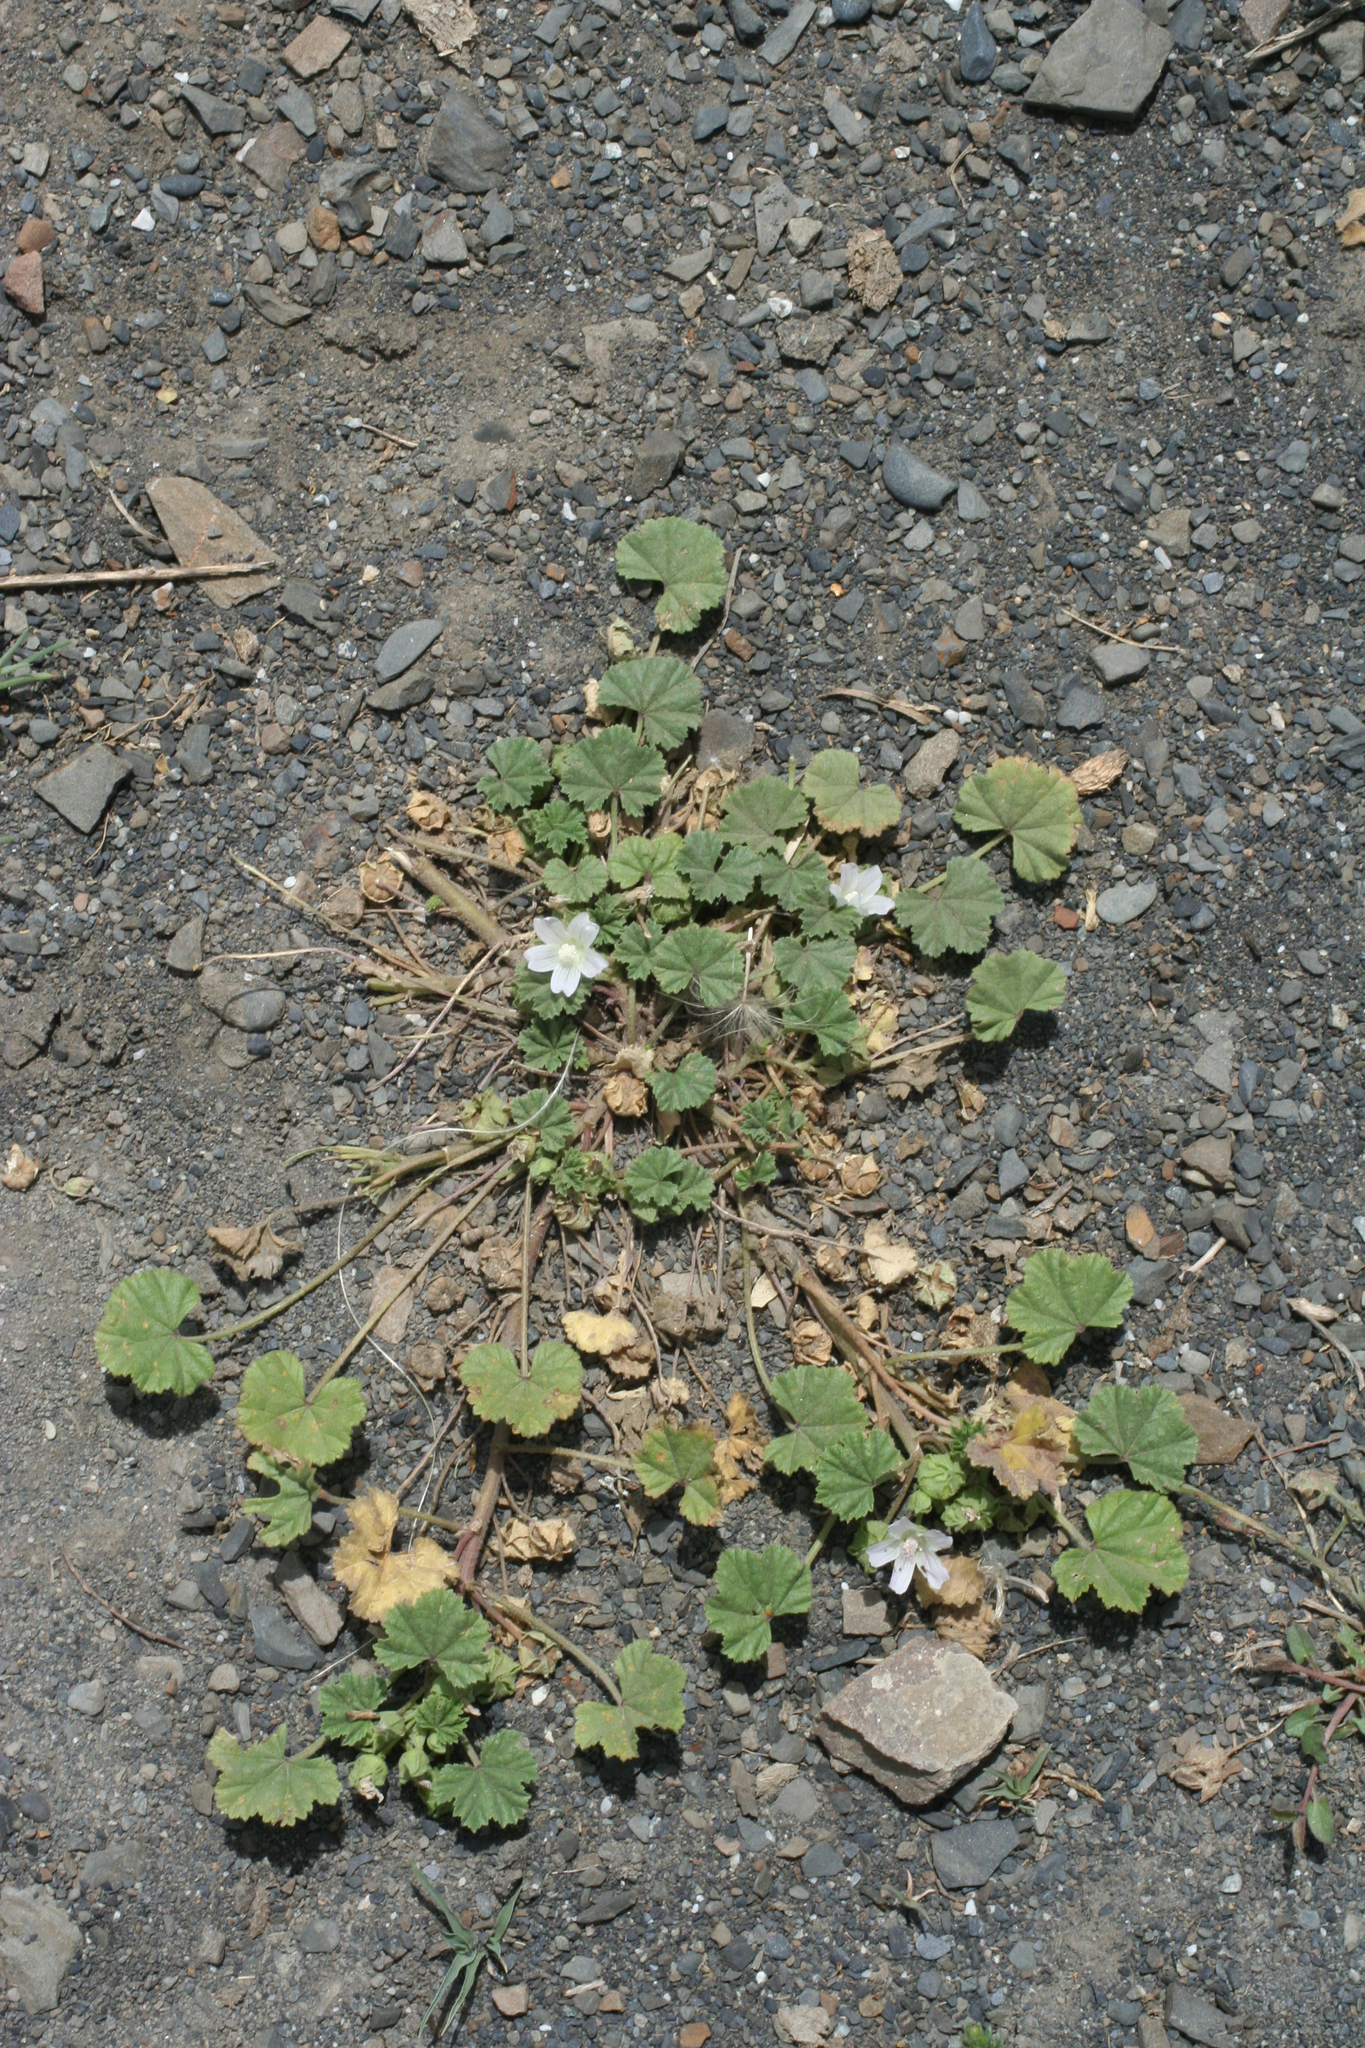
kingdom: Plantae
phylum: Tracheophyta
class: Magnoliopsida
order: Malvales
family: Malvaceae
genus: Malva
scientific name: Malva neglecta
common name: Common mallow
